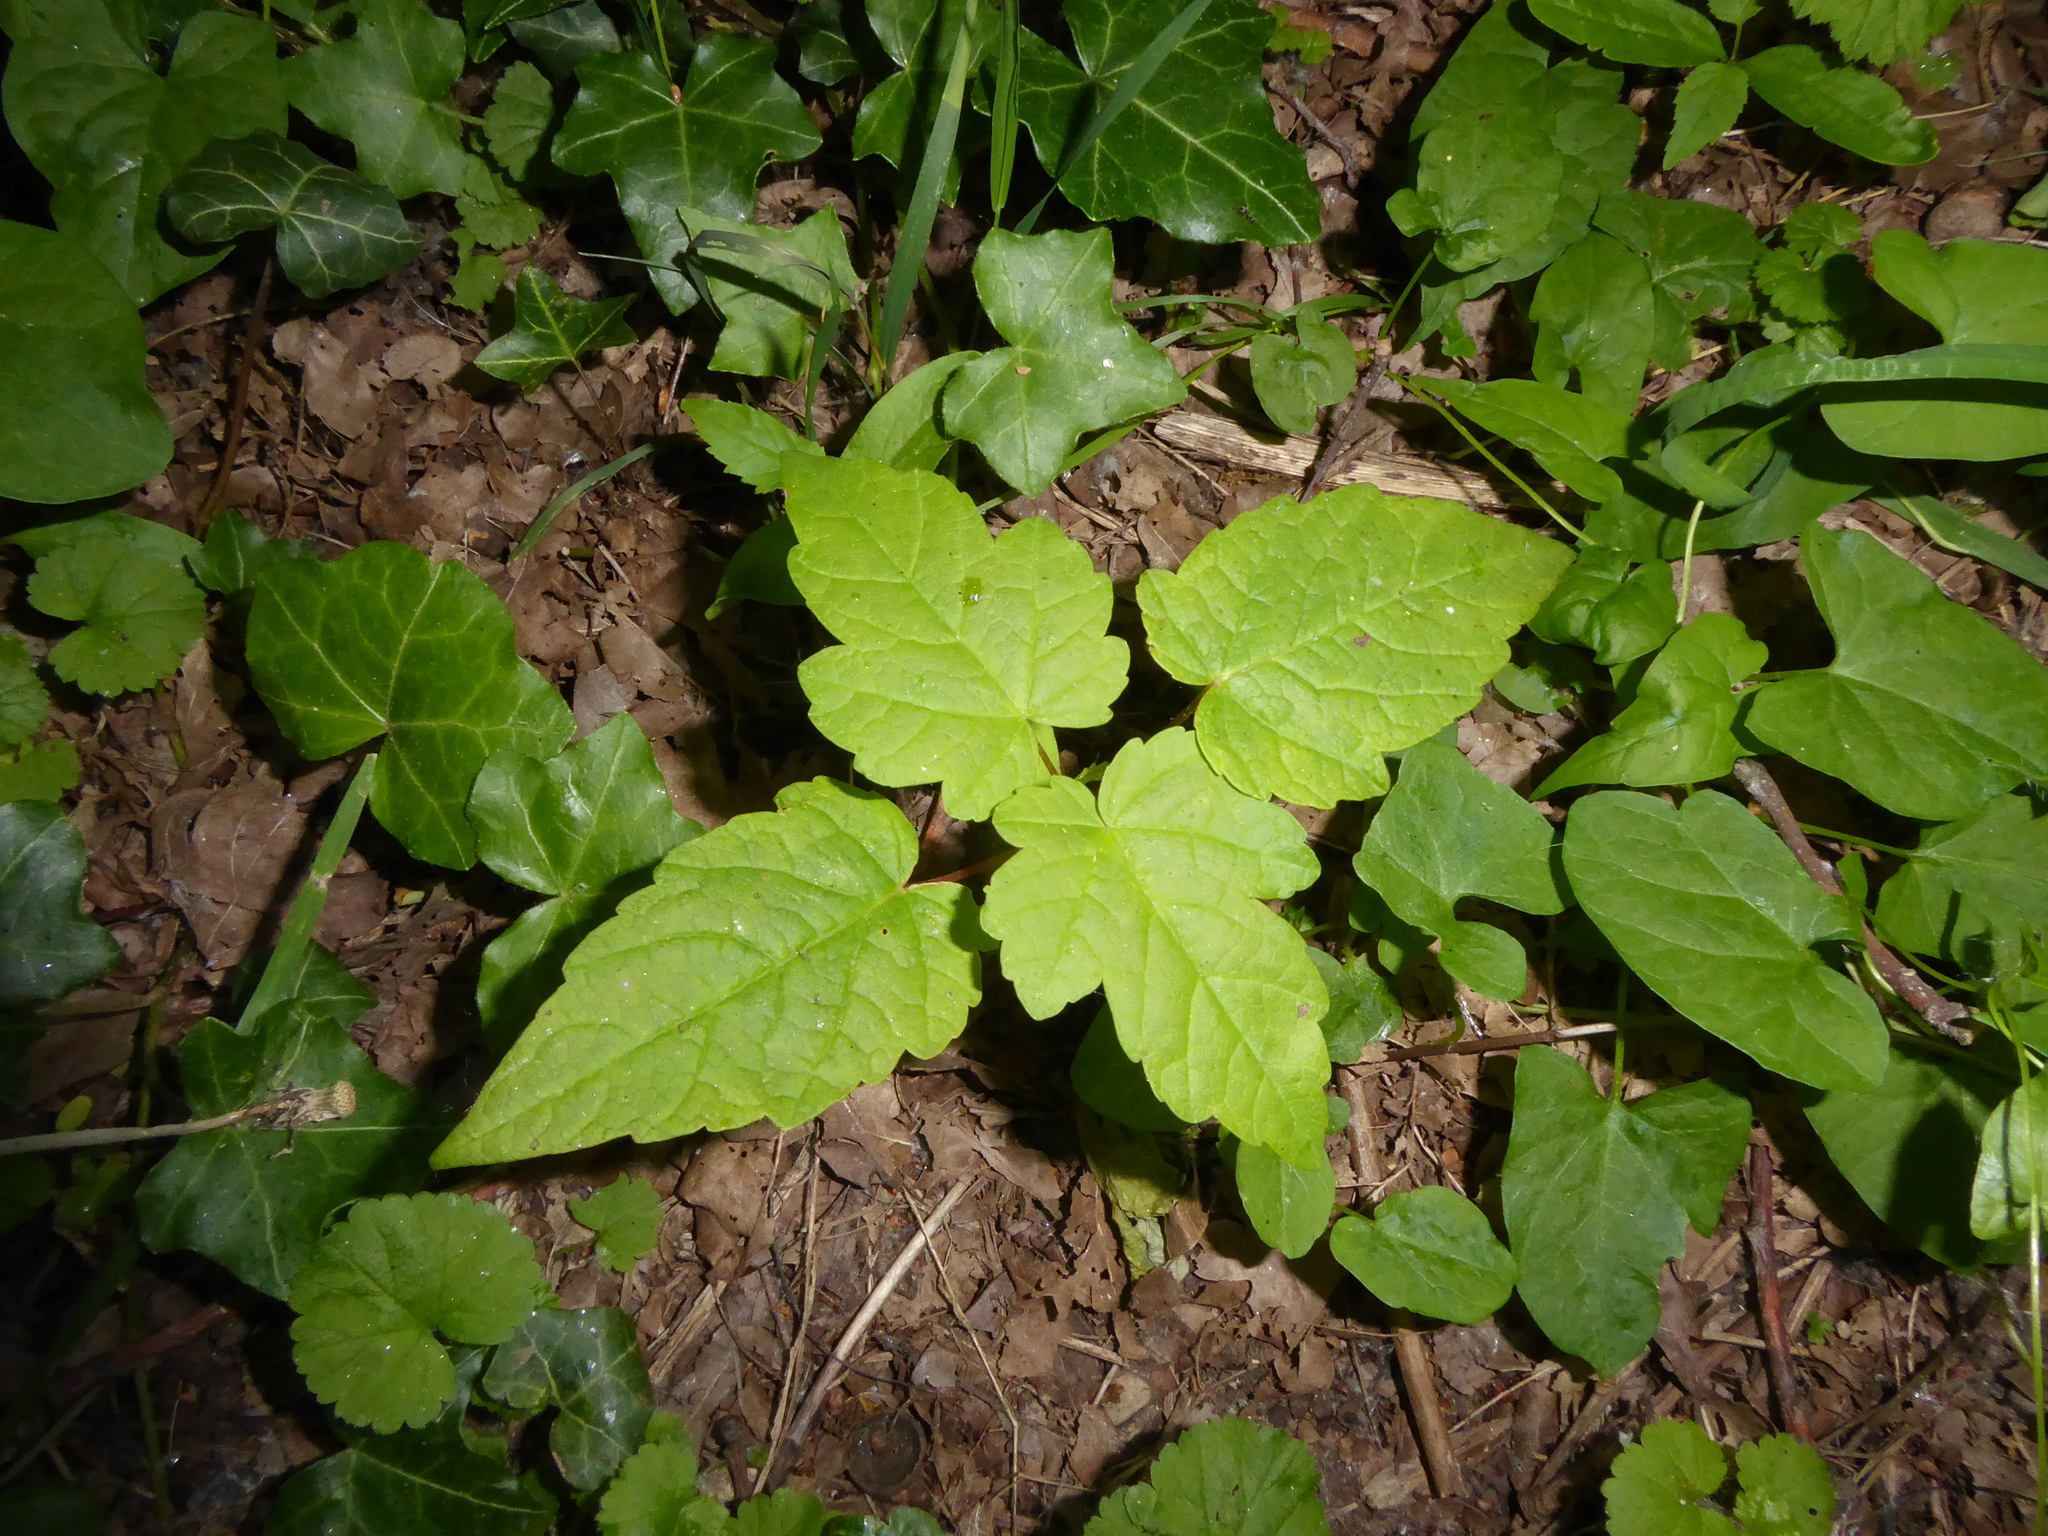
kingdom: Plantae
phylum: Tracheophyta
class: Magnoliopsida
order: Sapindales
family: Sapindaceae
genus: Acer
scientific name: Acer pseudoplatanus
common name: Sycamore
